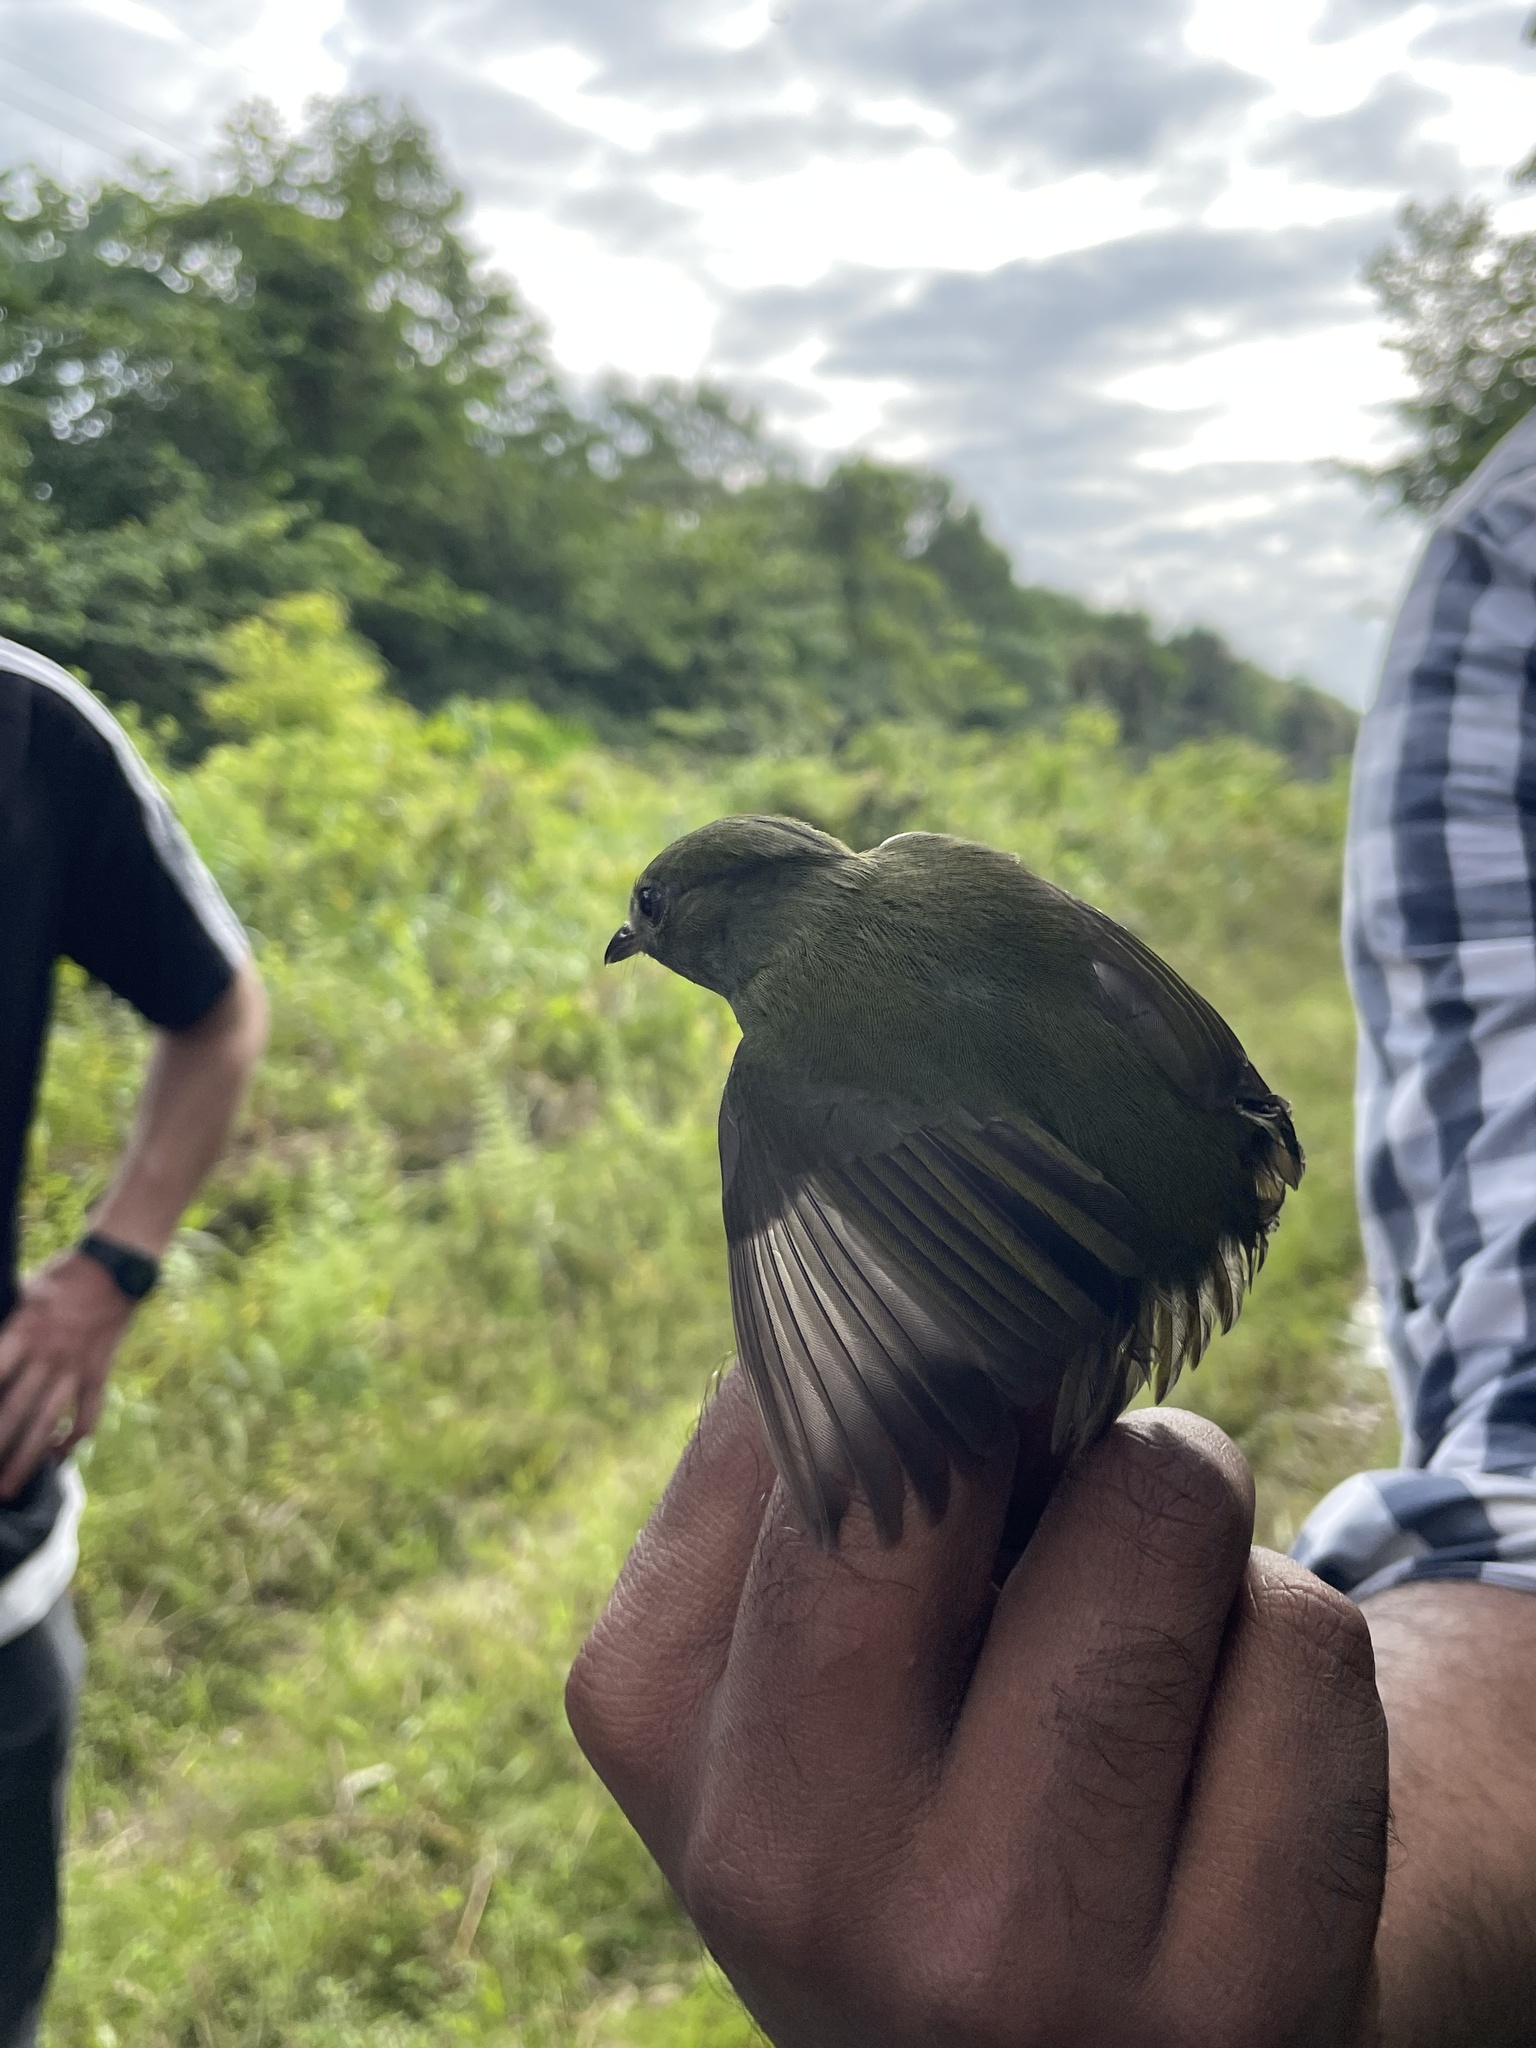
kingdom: Animalia
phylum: Chordata
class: Aves
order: Passeriformes
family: Pipridae
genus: Manacus
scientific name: Manacus manacus
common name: White-bearded manakin
